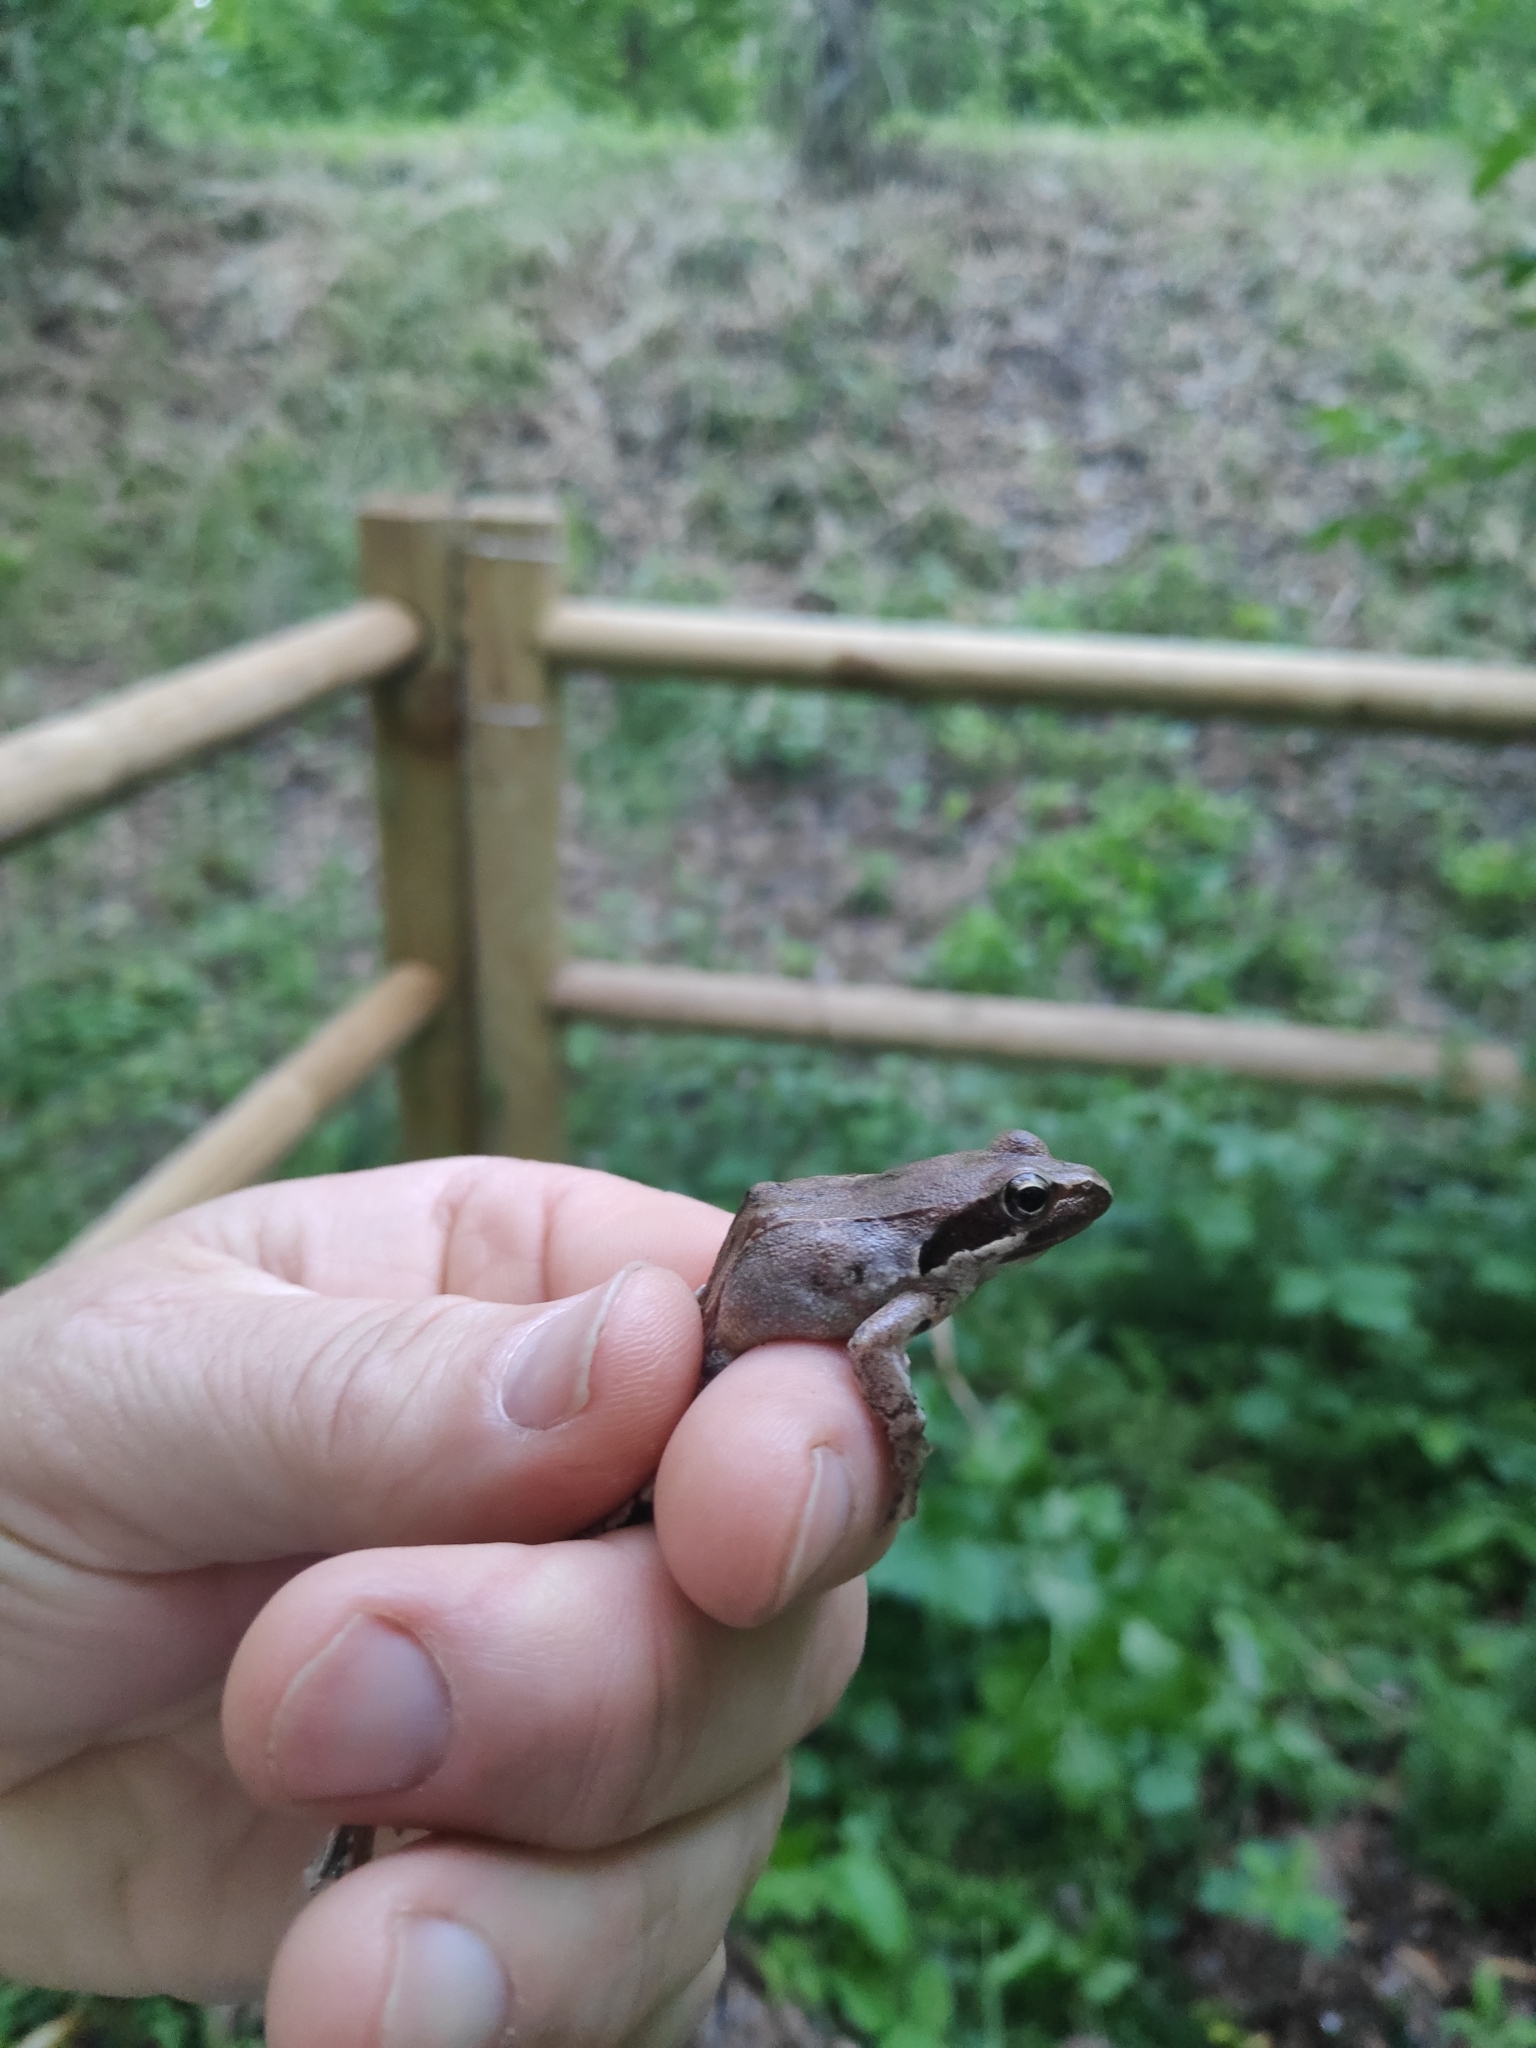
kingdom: Animalia
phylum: Chordata
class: Amphibia
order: Anura
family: Ranidae
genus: Rana
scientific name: Rana latastei
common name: Italian agile frog
